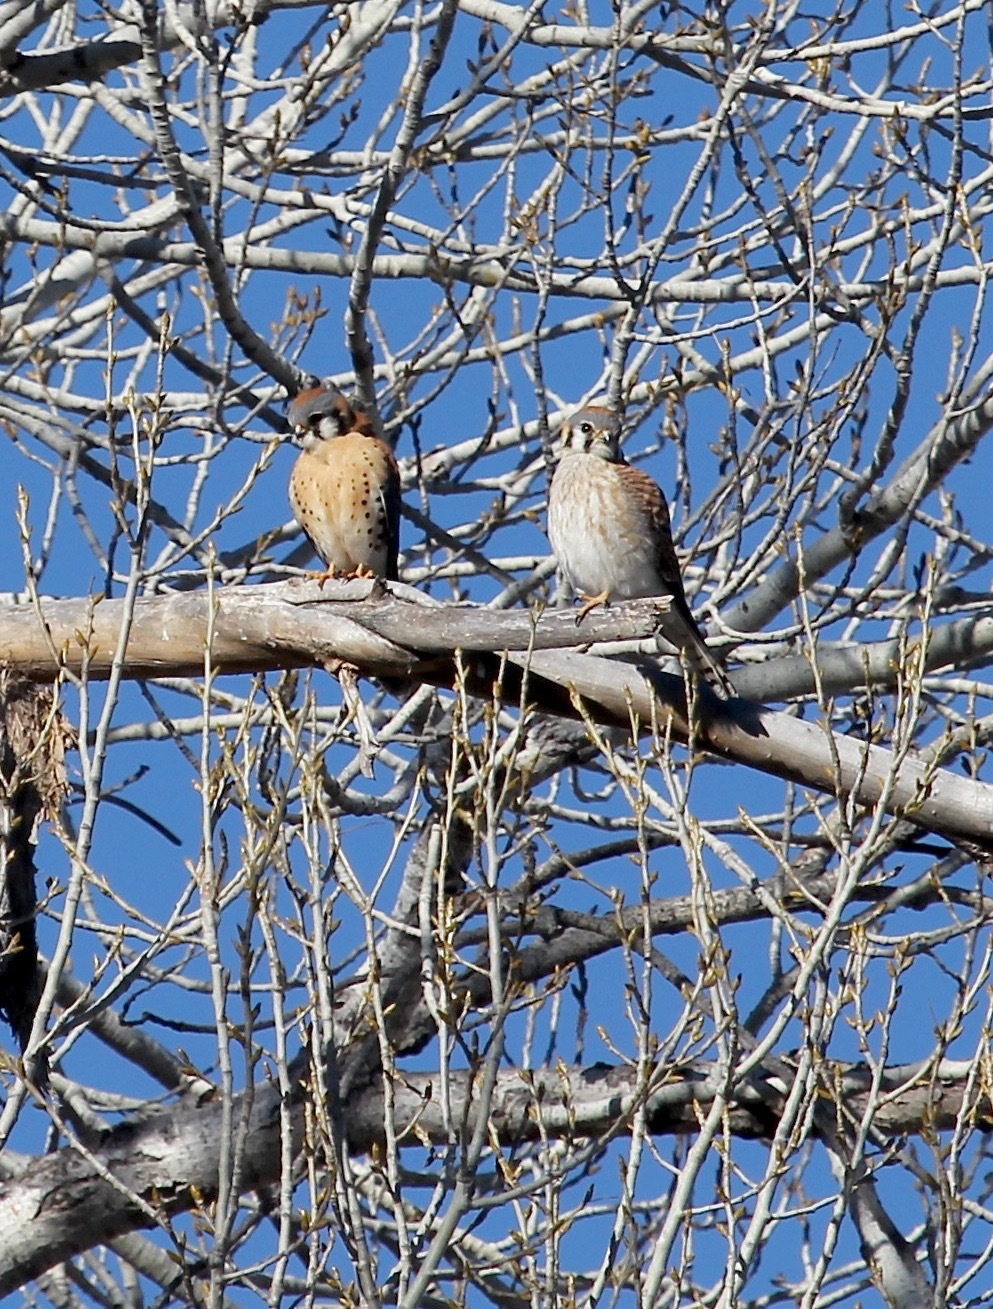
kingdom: Animalia
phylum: Chordata
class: Aves
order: Falconiformes
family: Falconidae
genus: Falco
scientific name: Falco sparverius
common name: American kestrel
